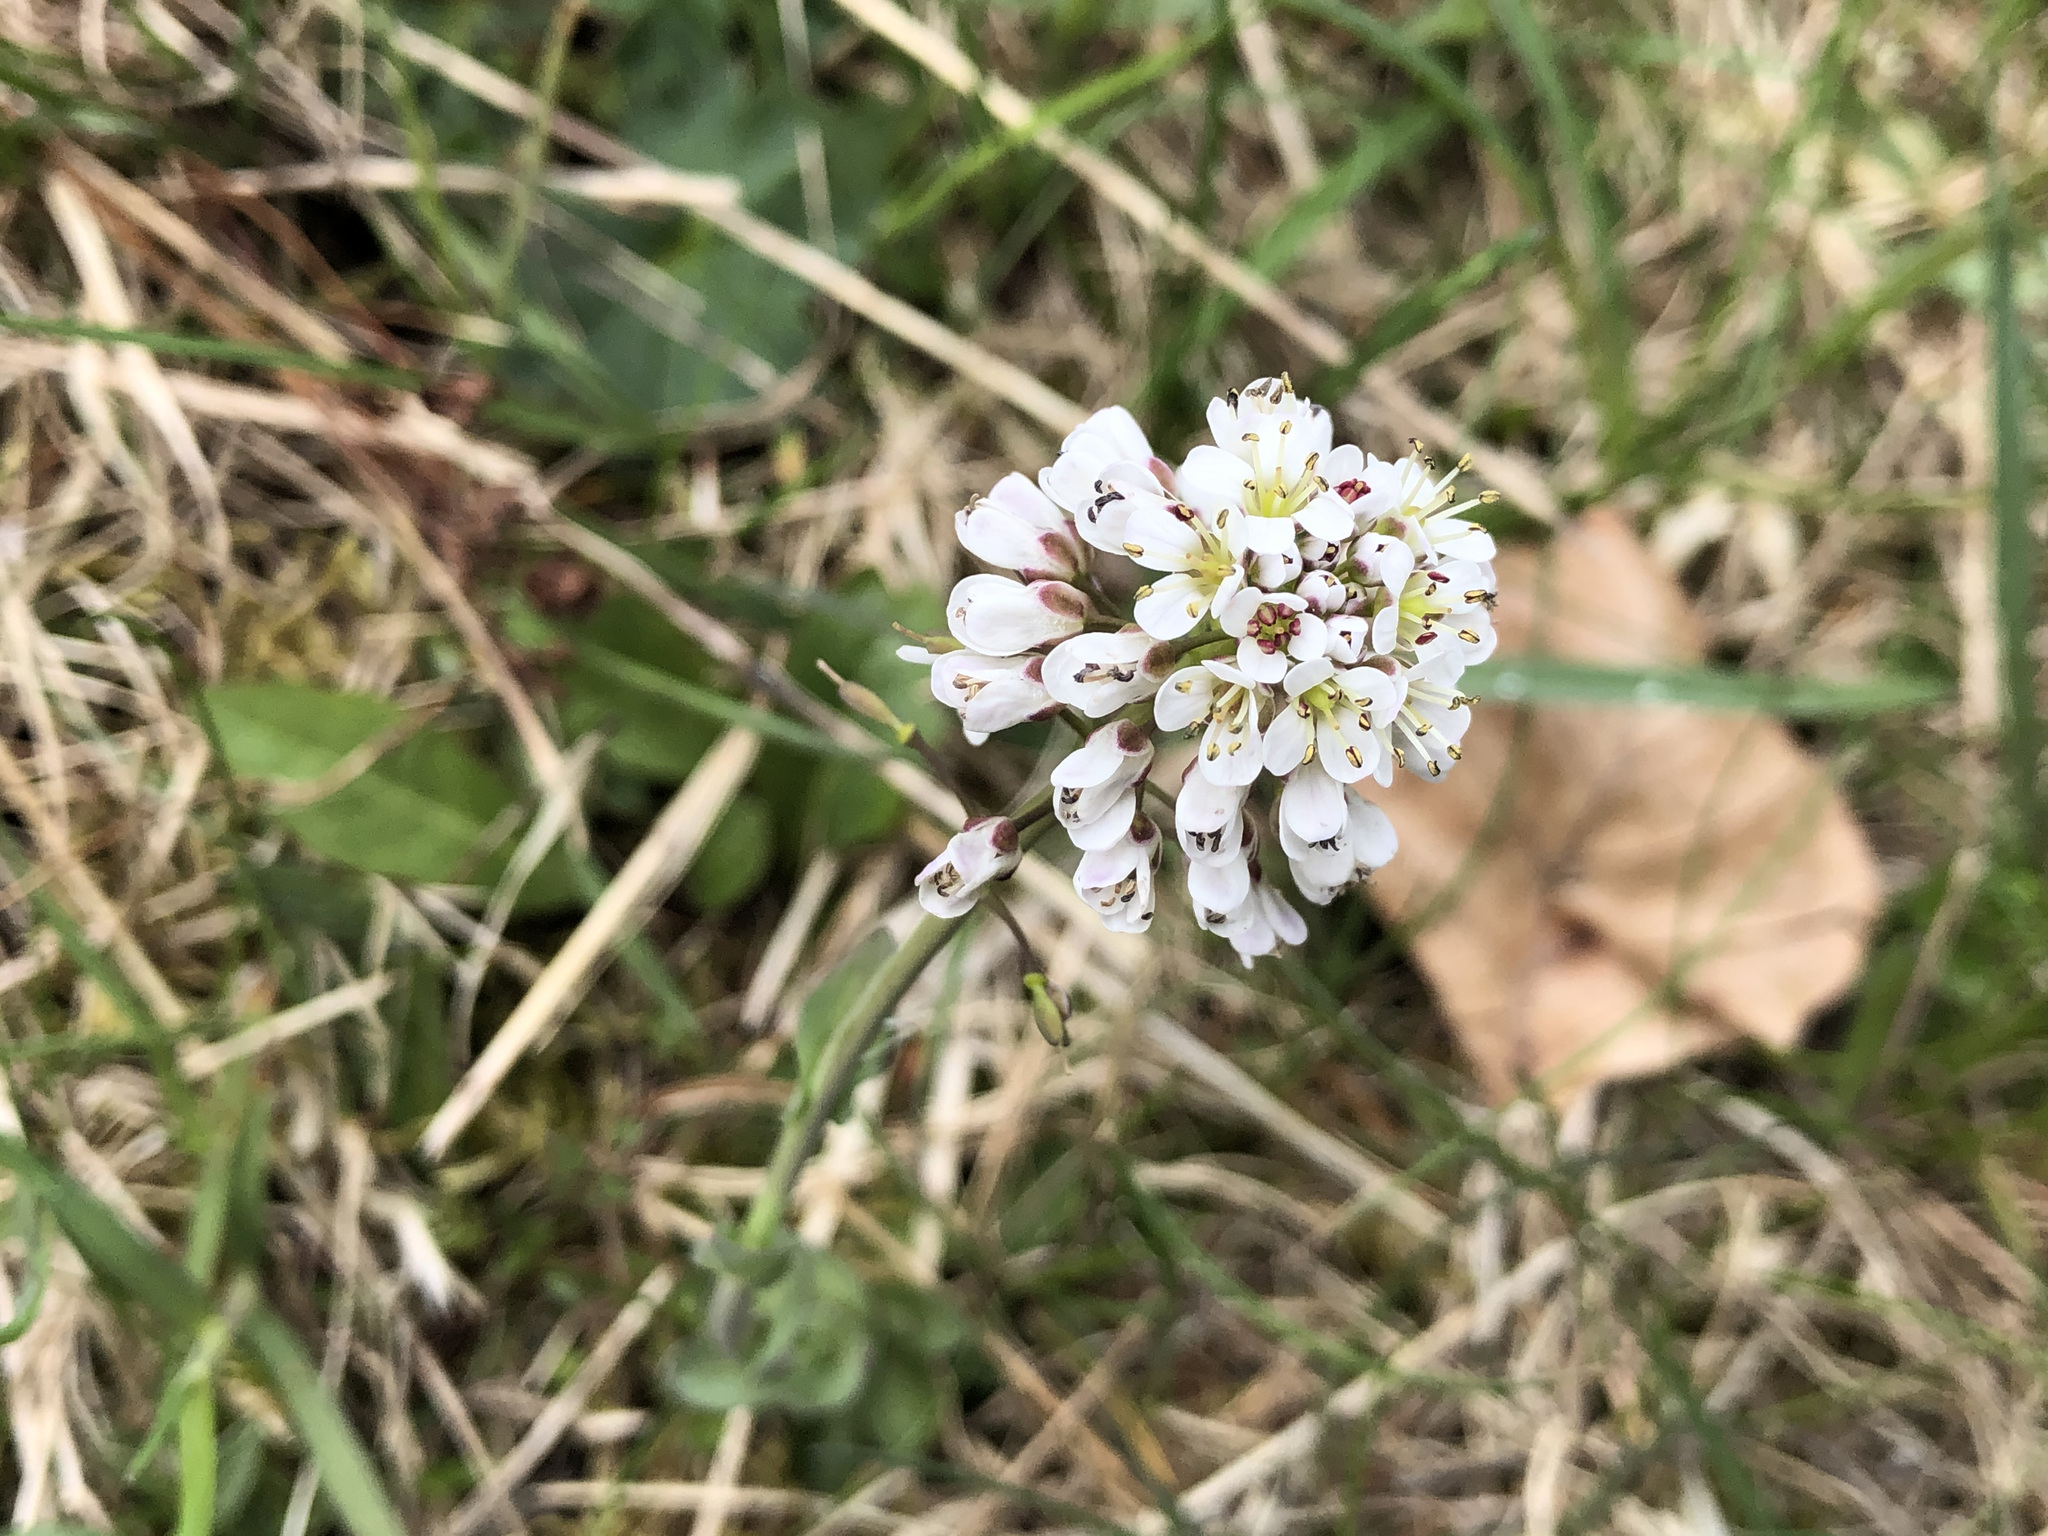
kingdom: Plantae
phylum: Tracheophyta
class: Magnoliopsida
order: Brassicales
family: Brassicaceae
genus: Noccaea
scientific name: Noccaea caerulescens
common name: Alpine pennycress
